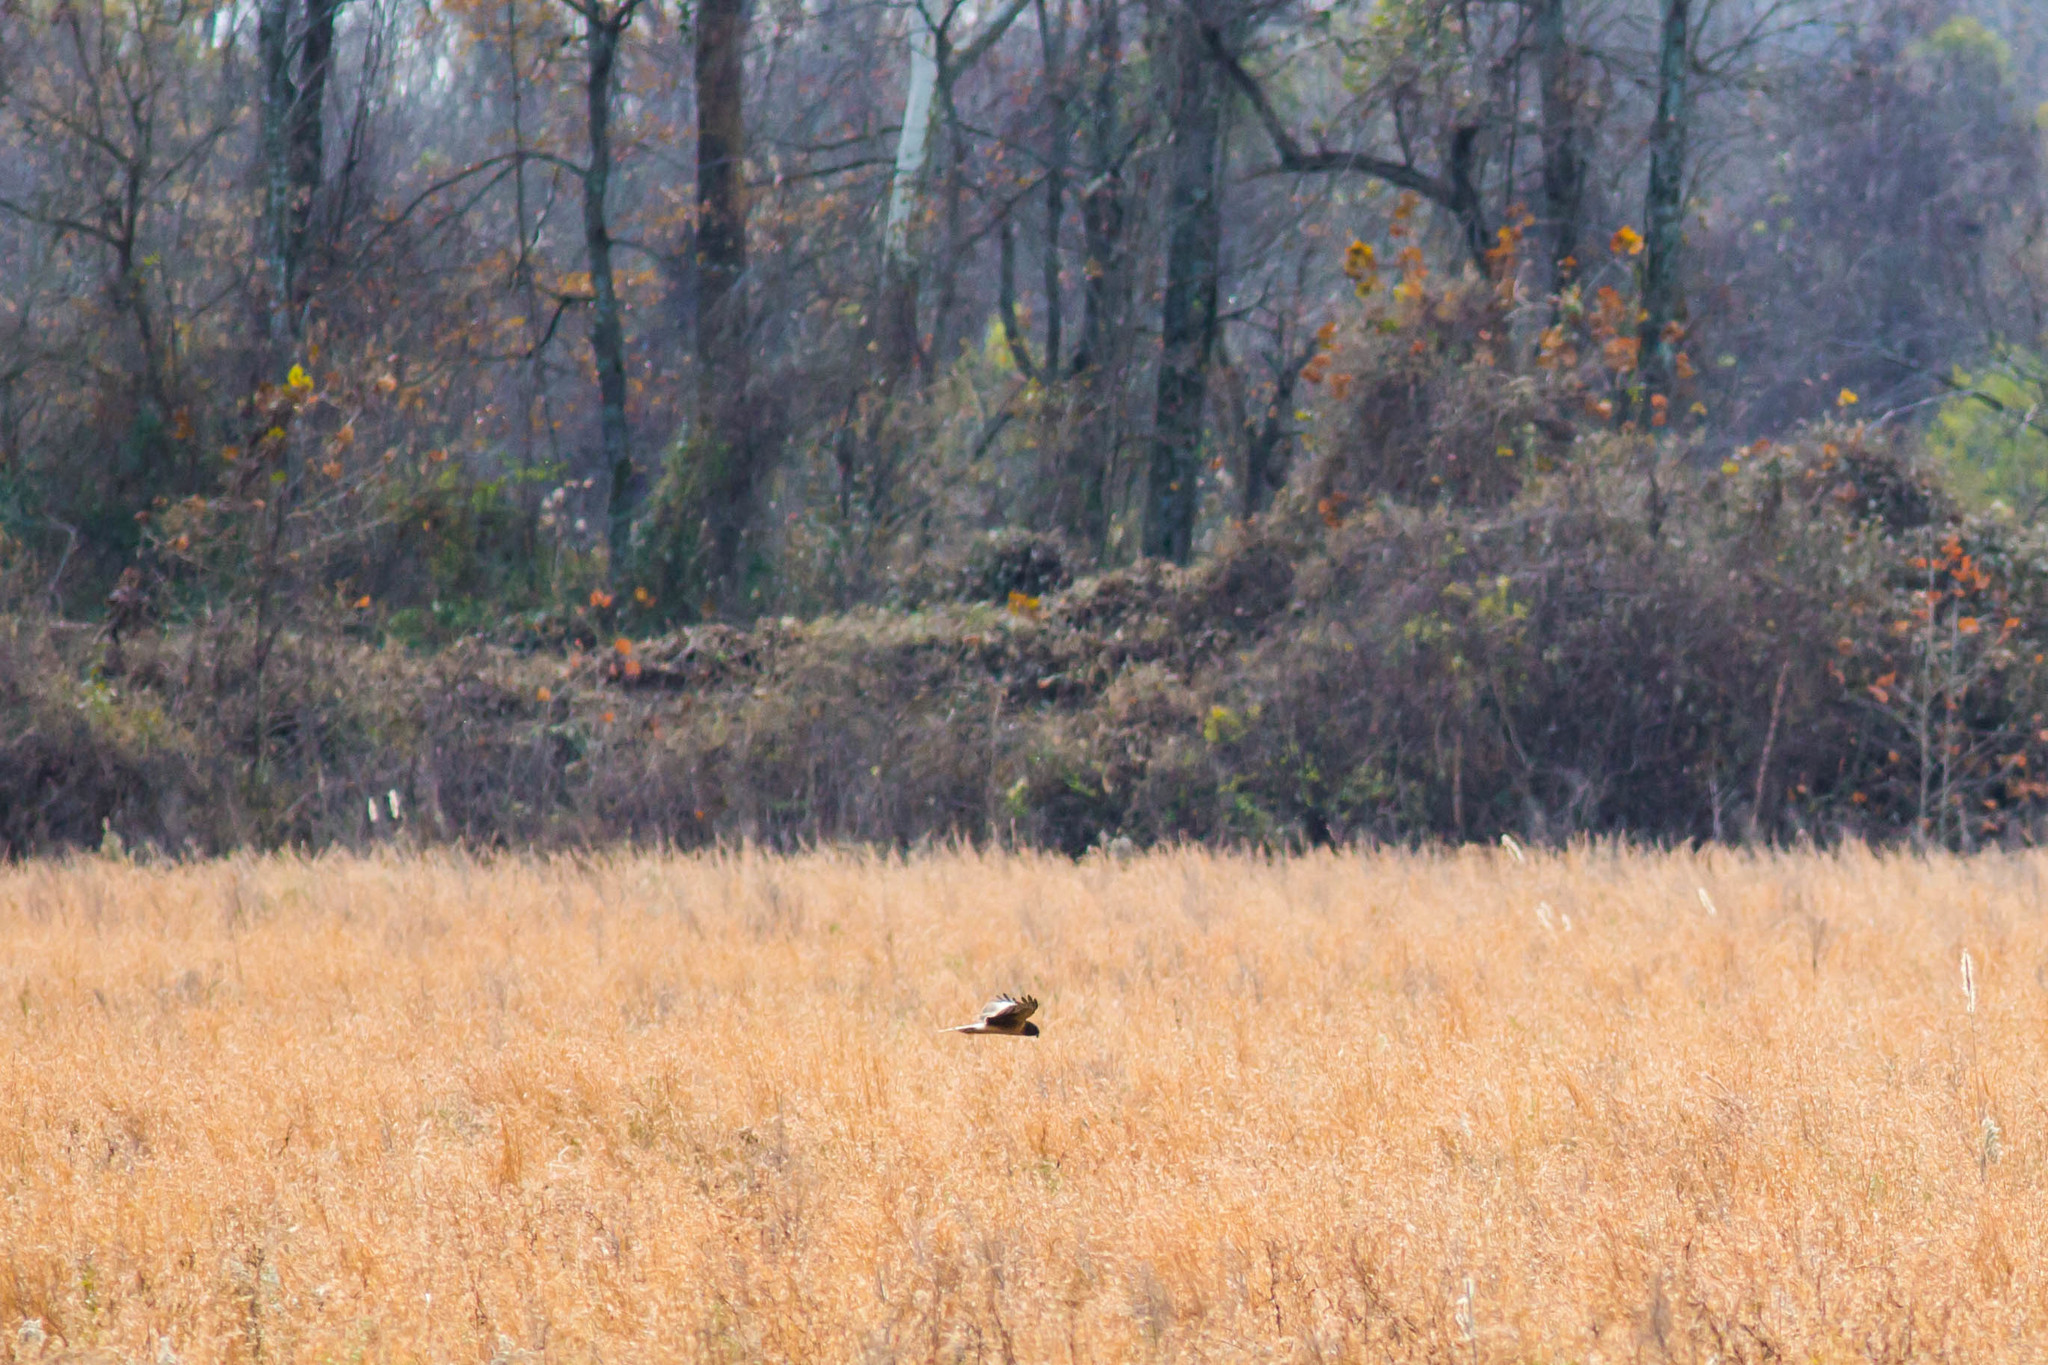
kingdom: Animalia
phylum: Chordata
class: Aves
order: Accipitriformes
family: Accipitridae
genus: Circus
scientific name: Circus cyaneus
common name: Hen harrier
